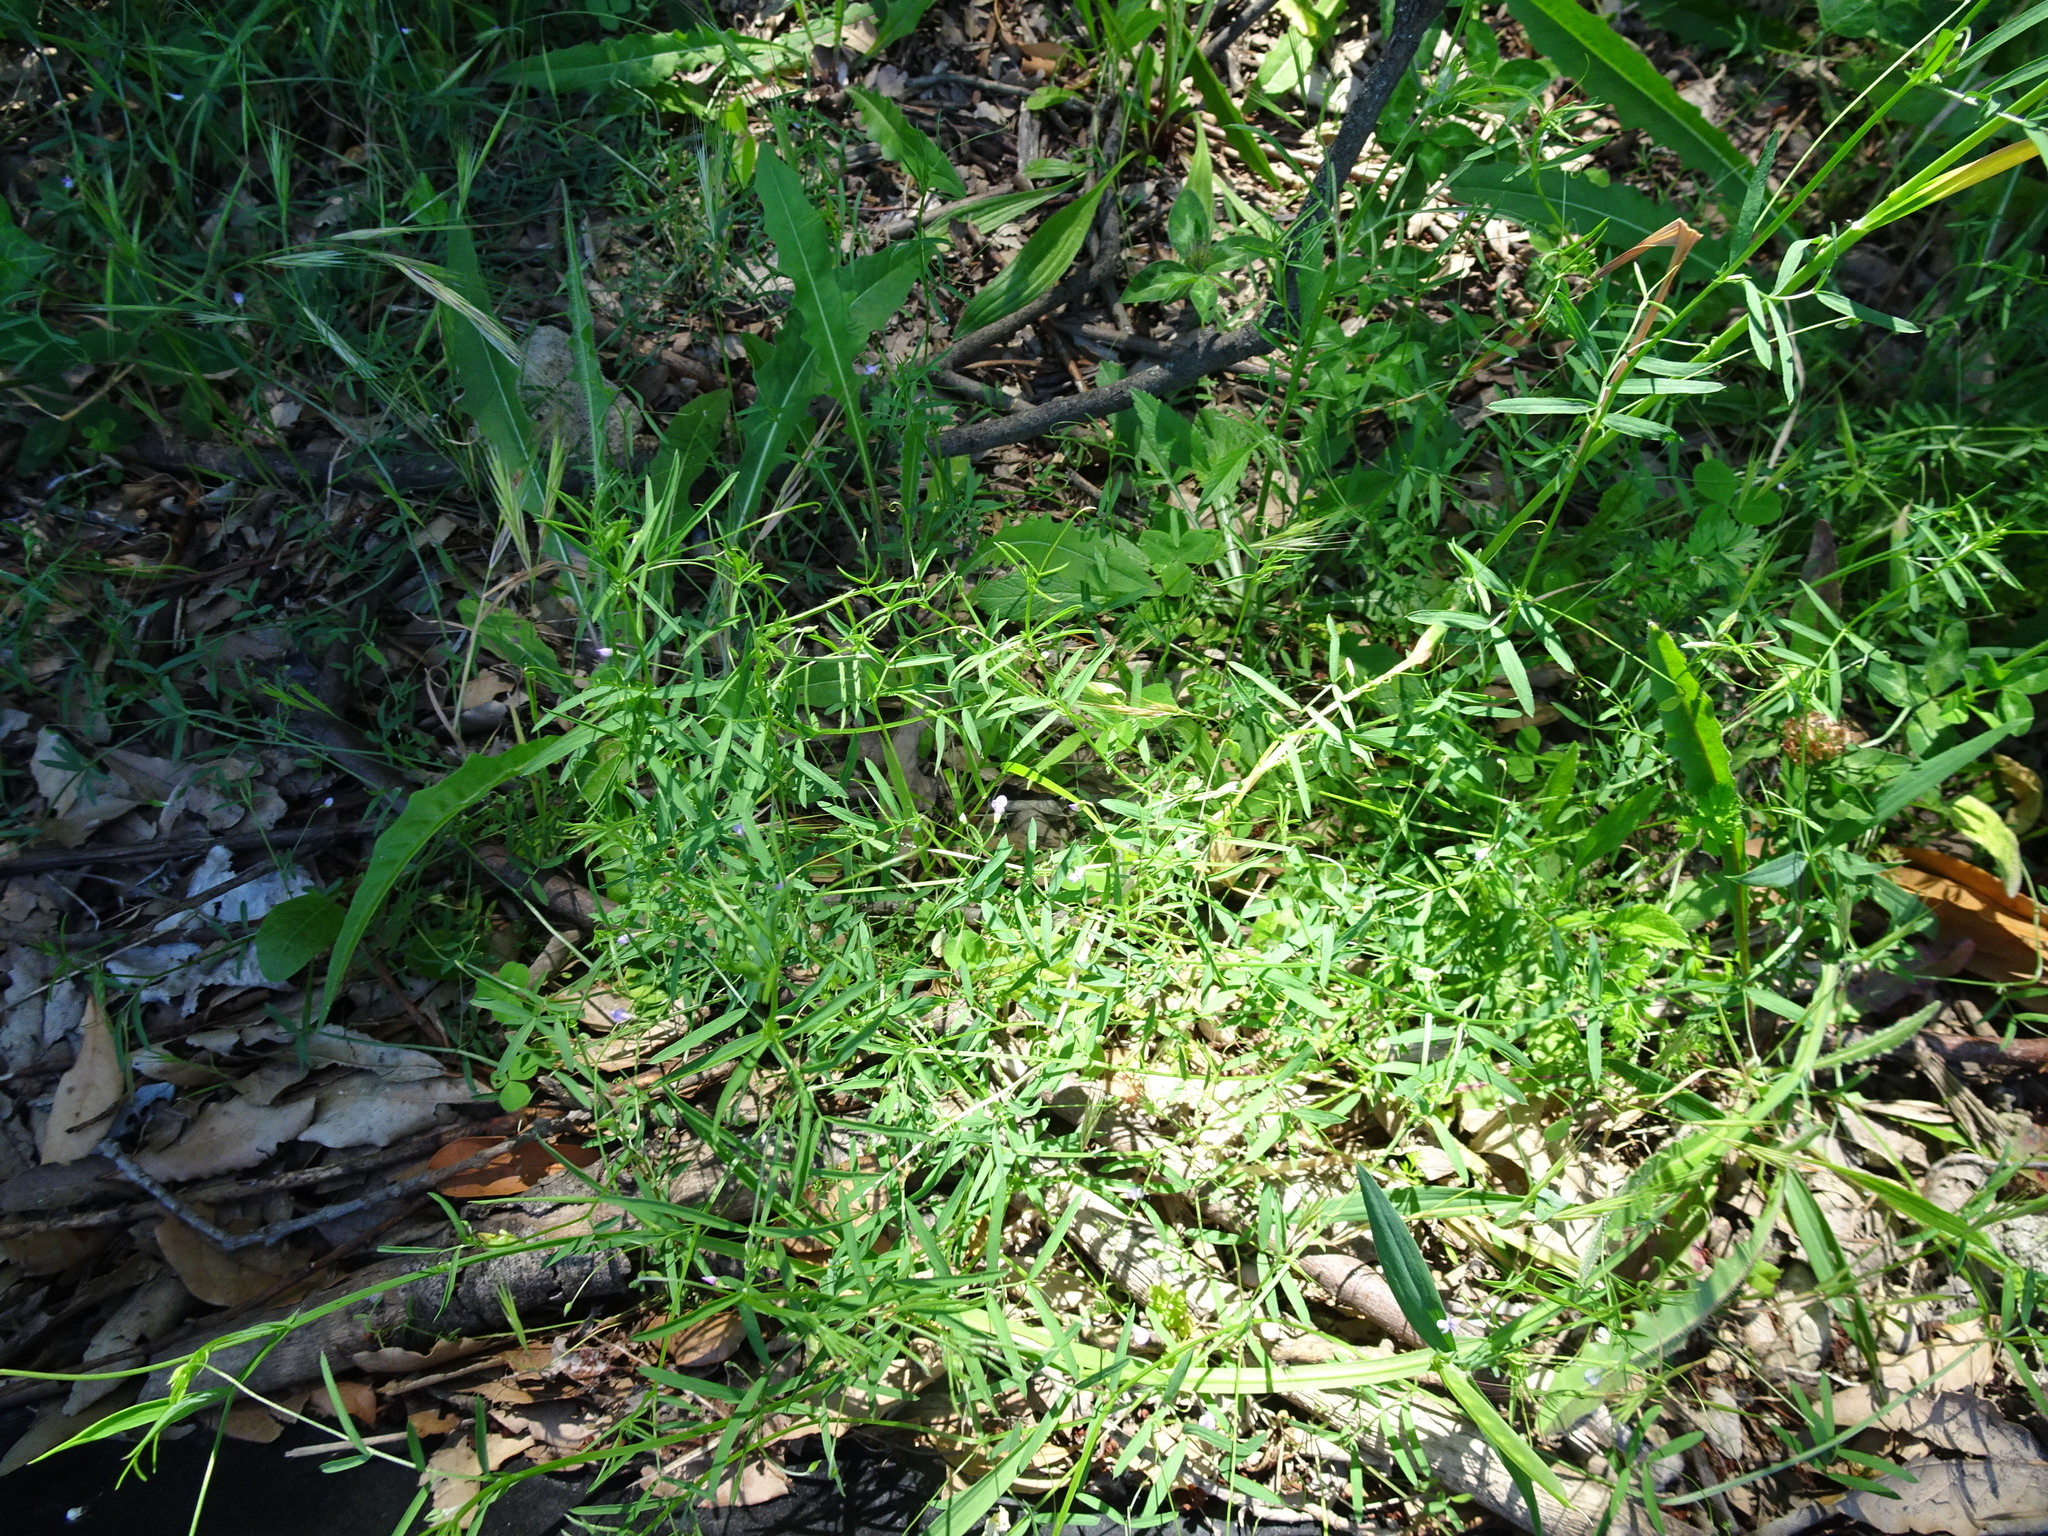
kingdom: Plantae
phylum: Tracheophyta
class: Magnoliopsida
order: Fabales
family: Fabaceae
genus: Vicia
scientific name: Vicia parviflora
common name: Slender tare
